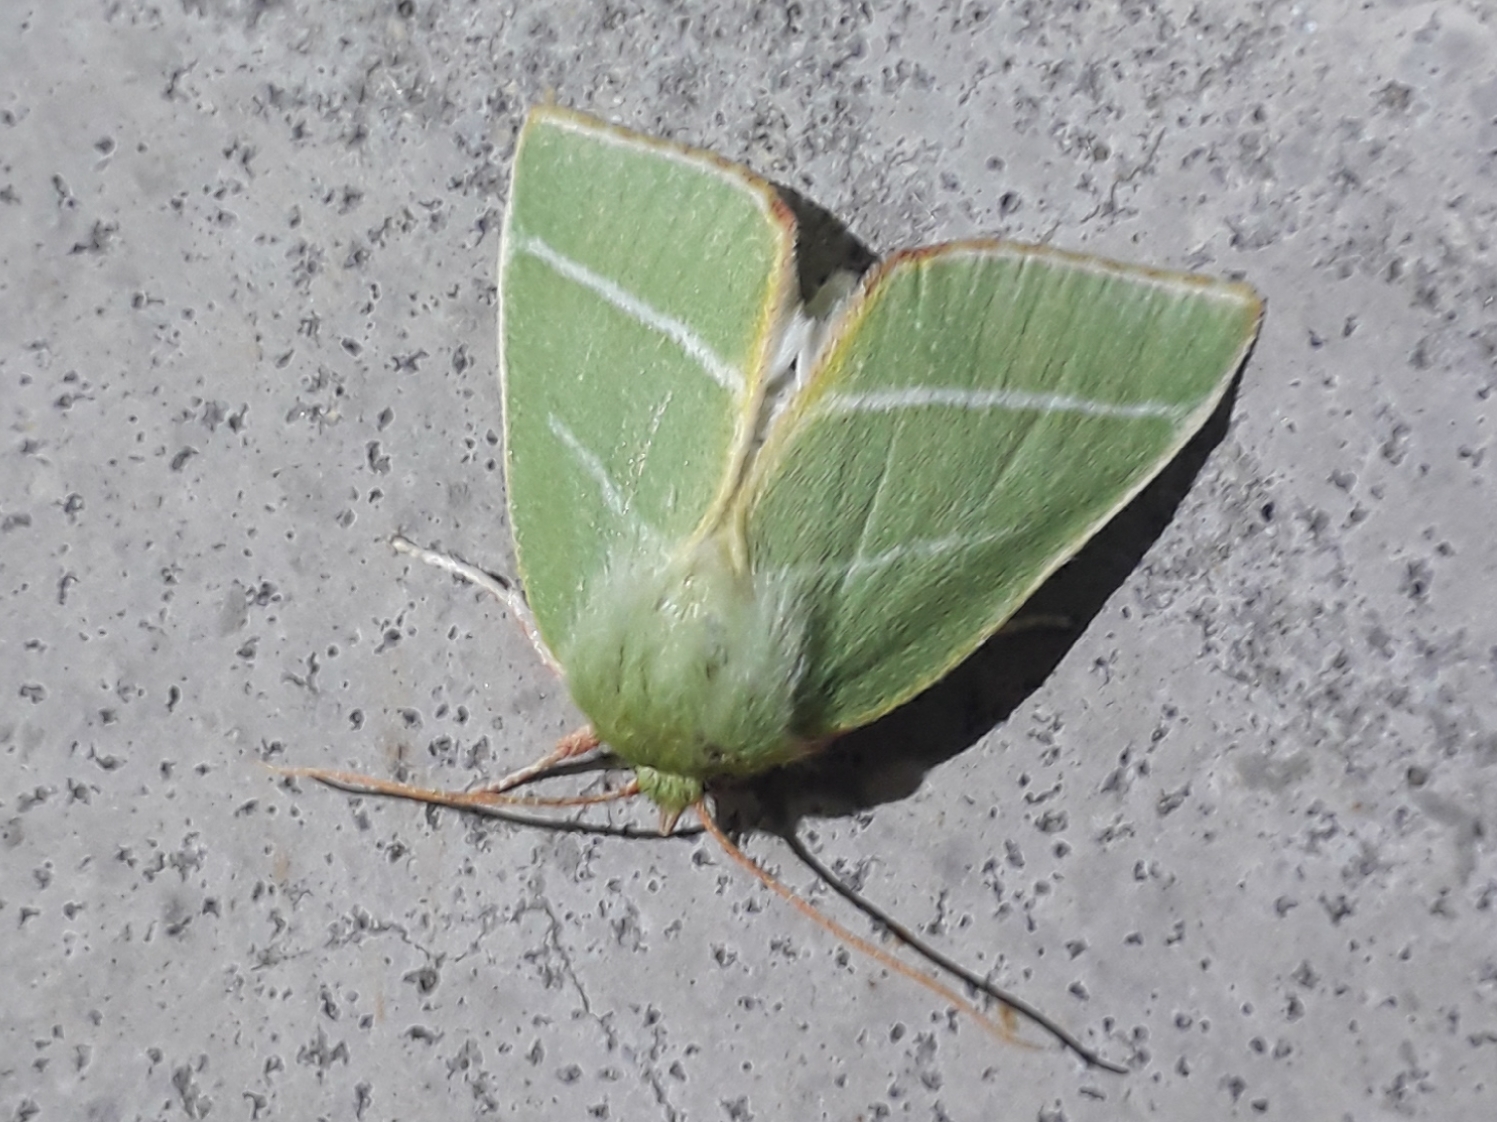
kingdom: Animalia
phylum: Arthropoda
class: Insecta
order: Lepidoptera
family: Nolidae
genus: Pseudoips
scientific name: Pseudoips prasinana
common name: Green silver-lines
